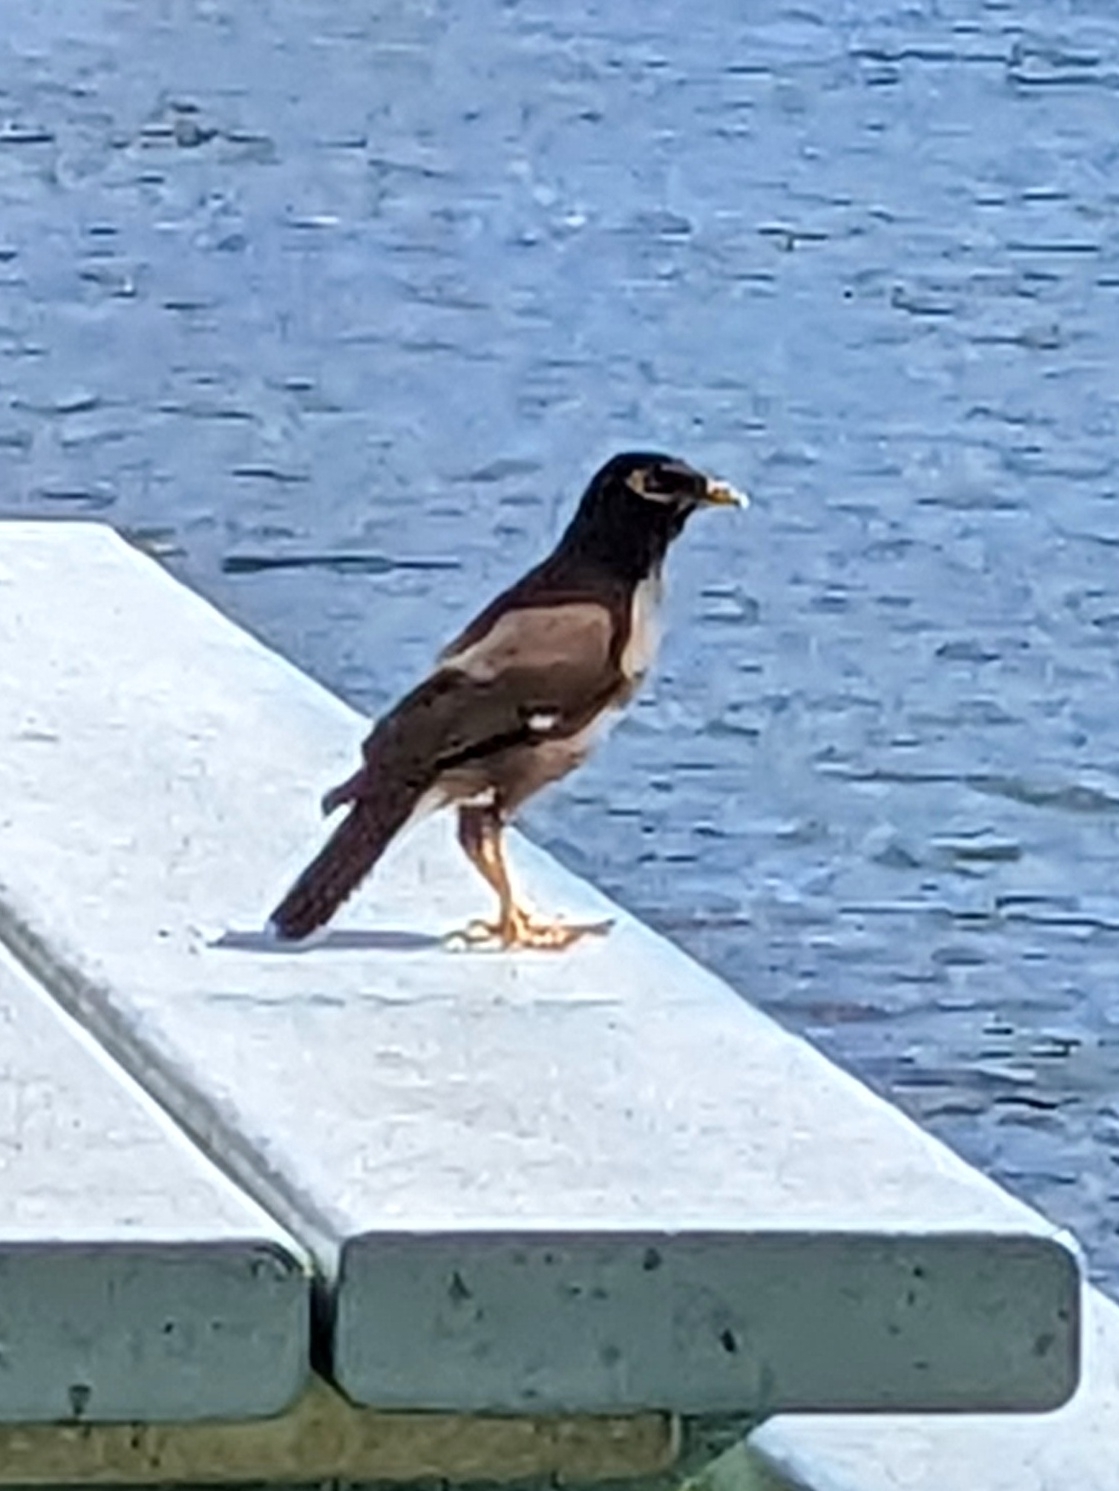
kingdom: Animalia
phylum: Chordata
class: Aves
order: Passeriformes
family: Sturnidae
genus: Acridotheres
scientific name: Acridotheres tristis
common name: Common myna
